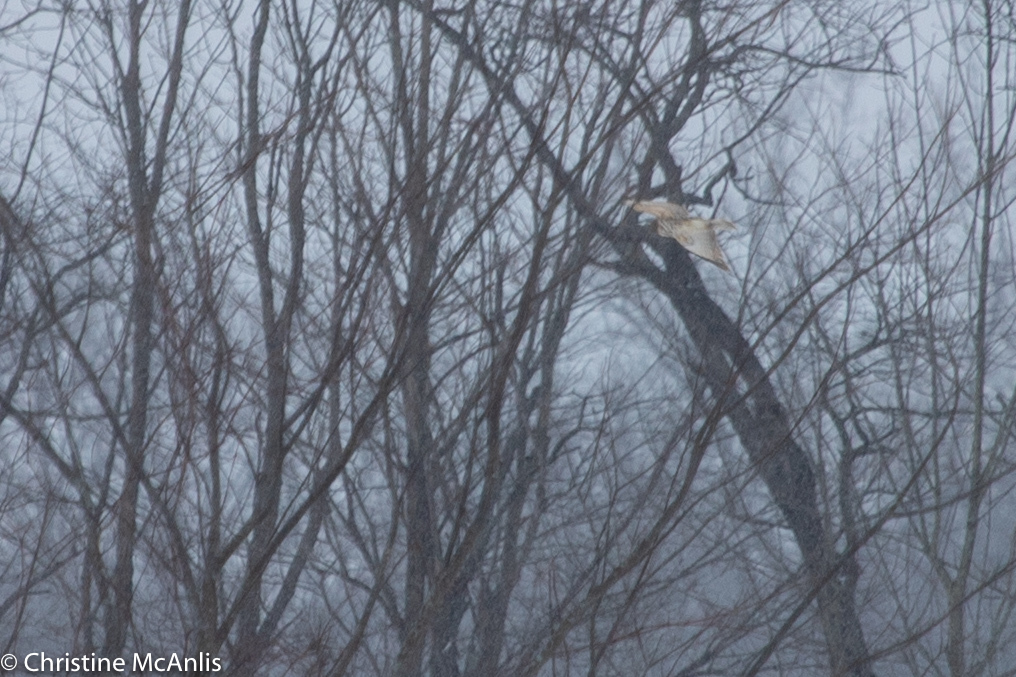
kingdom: Animalia
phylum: Chordata
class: Aves
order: Accipitriformes
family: Accipitridae
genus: Buteo
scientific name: Buteo jamaicensis
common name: Red-tailed hawk
